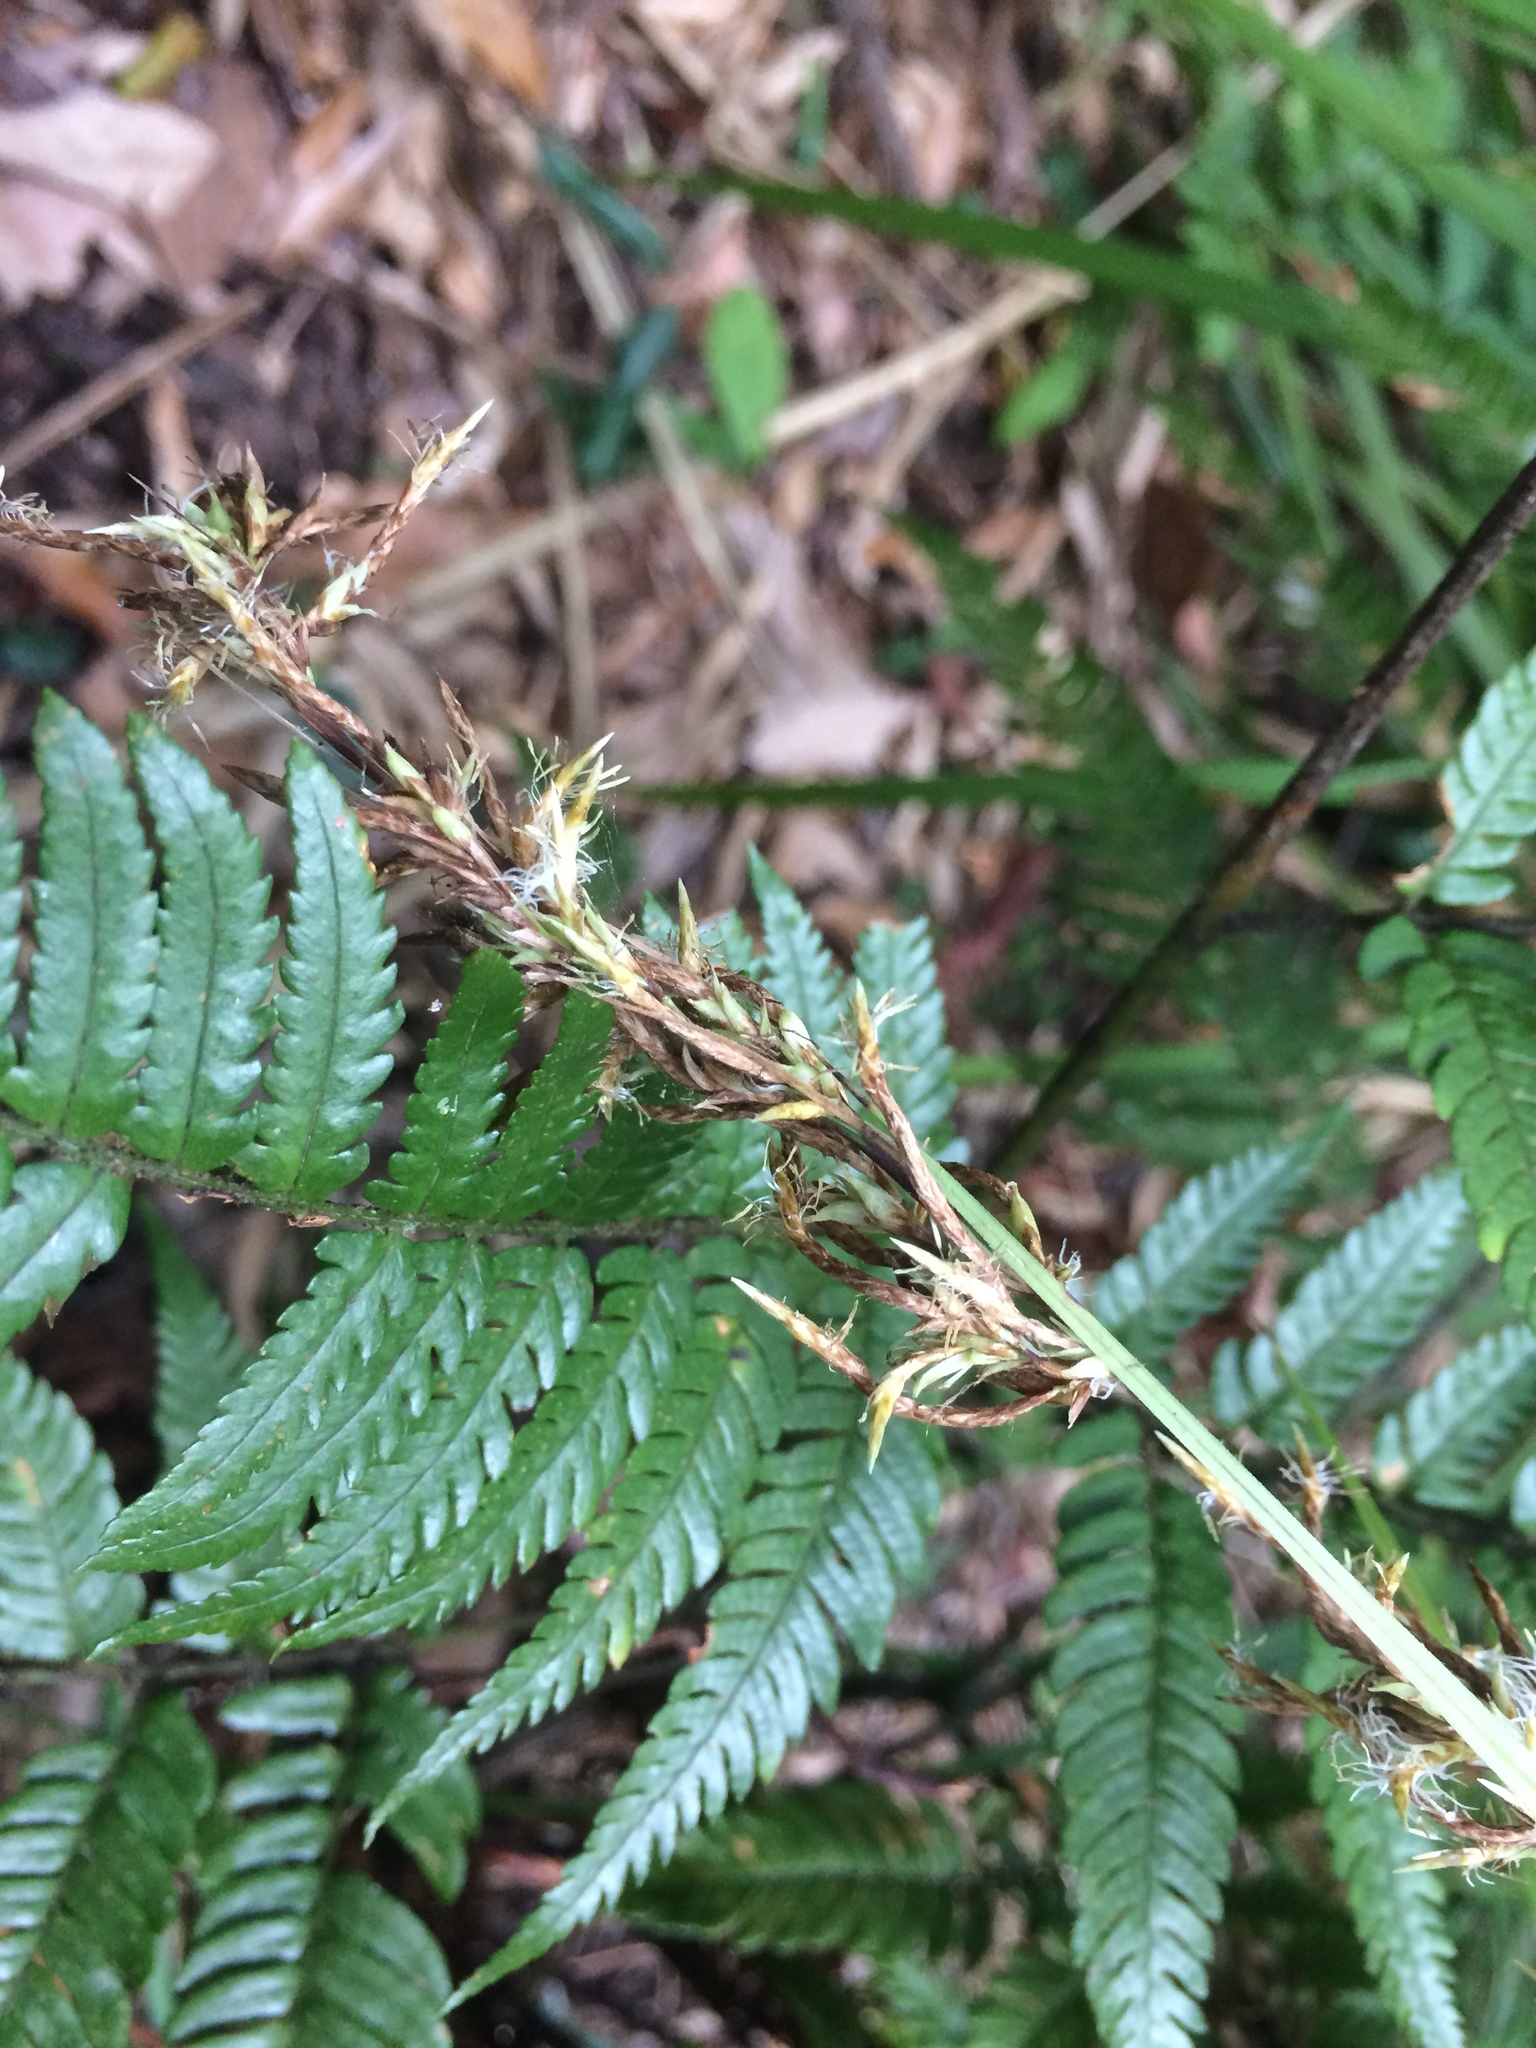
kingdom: Plantae
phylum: Tracheophyta
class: Liliopsida
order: Poales
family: Cyperaceae
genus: Carex
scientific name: Carex morii
